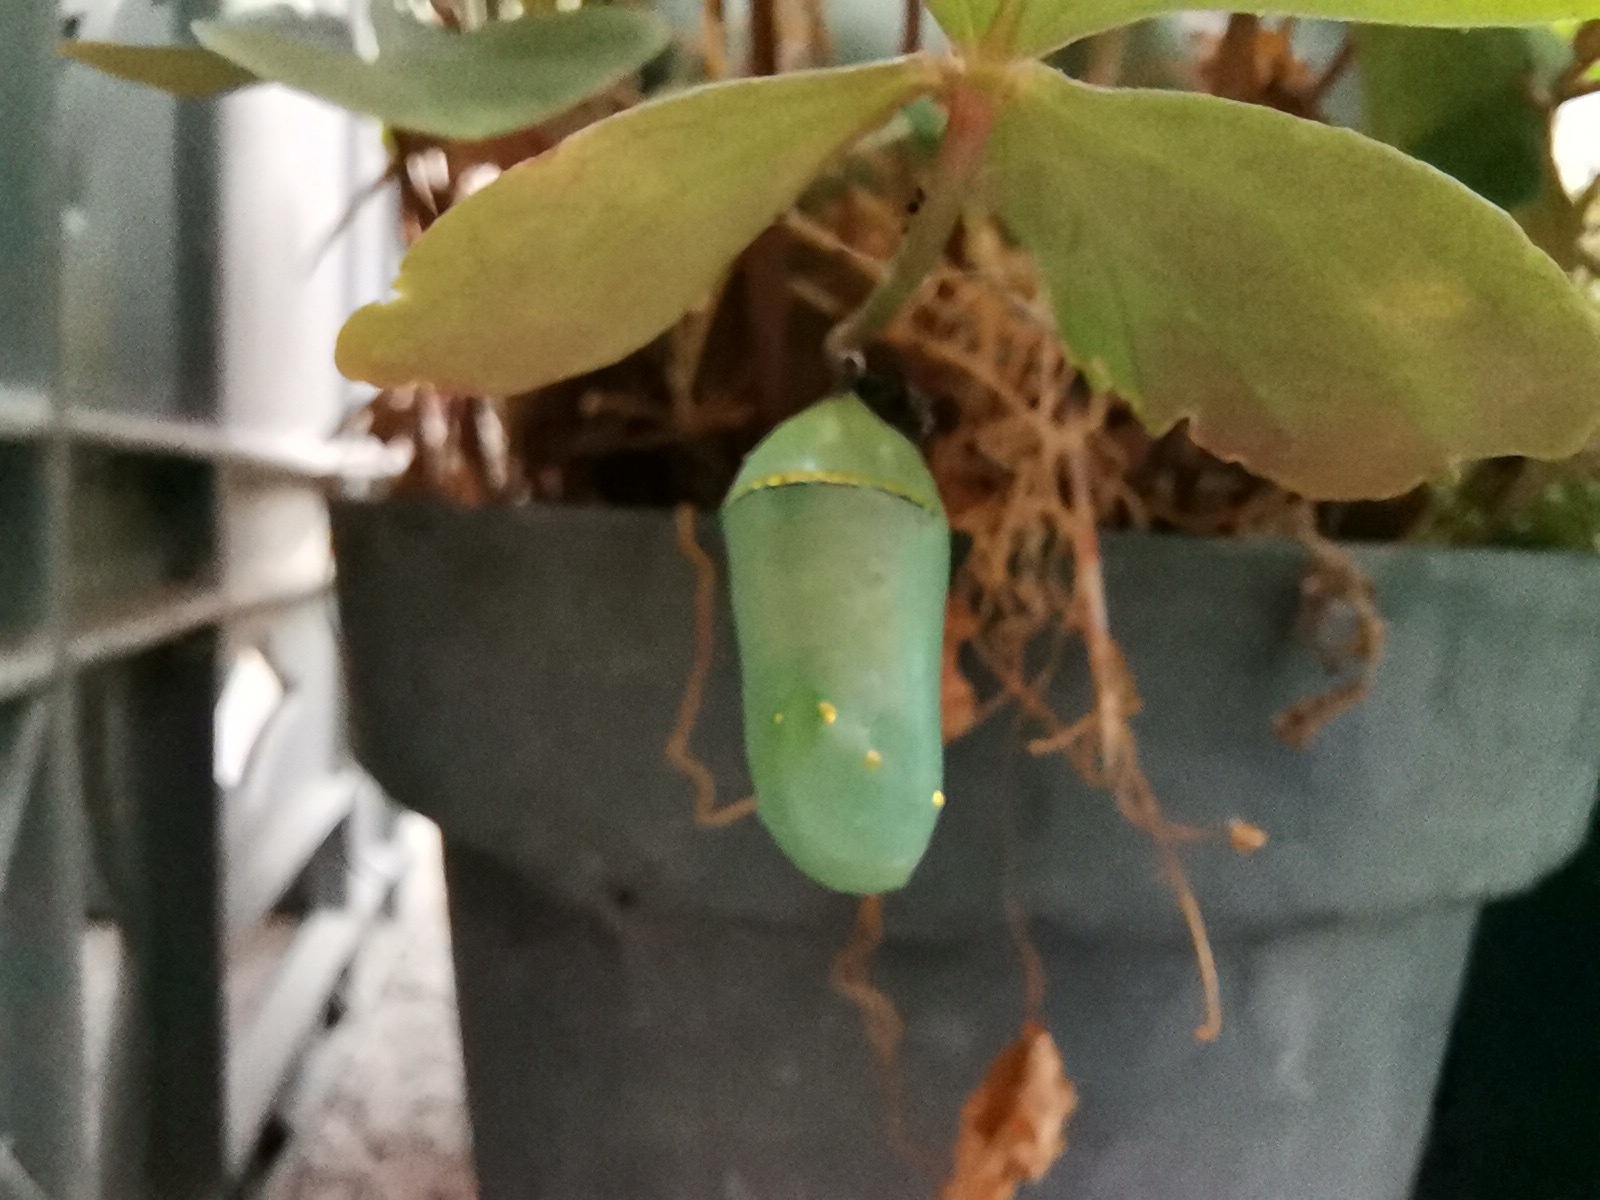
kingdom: Animalia
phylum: Arthropoda
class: Insecta
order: Lepidoptera
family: Nymphalidae
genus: Danaus
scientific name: Danaus plexippus
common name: Monarch
